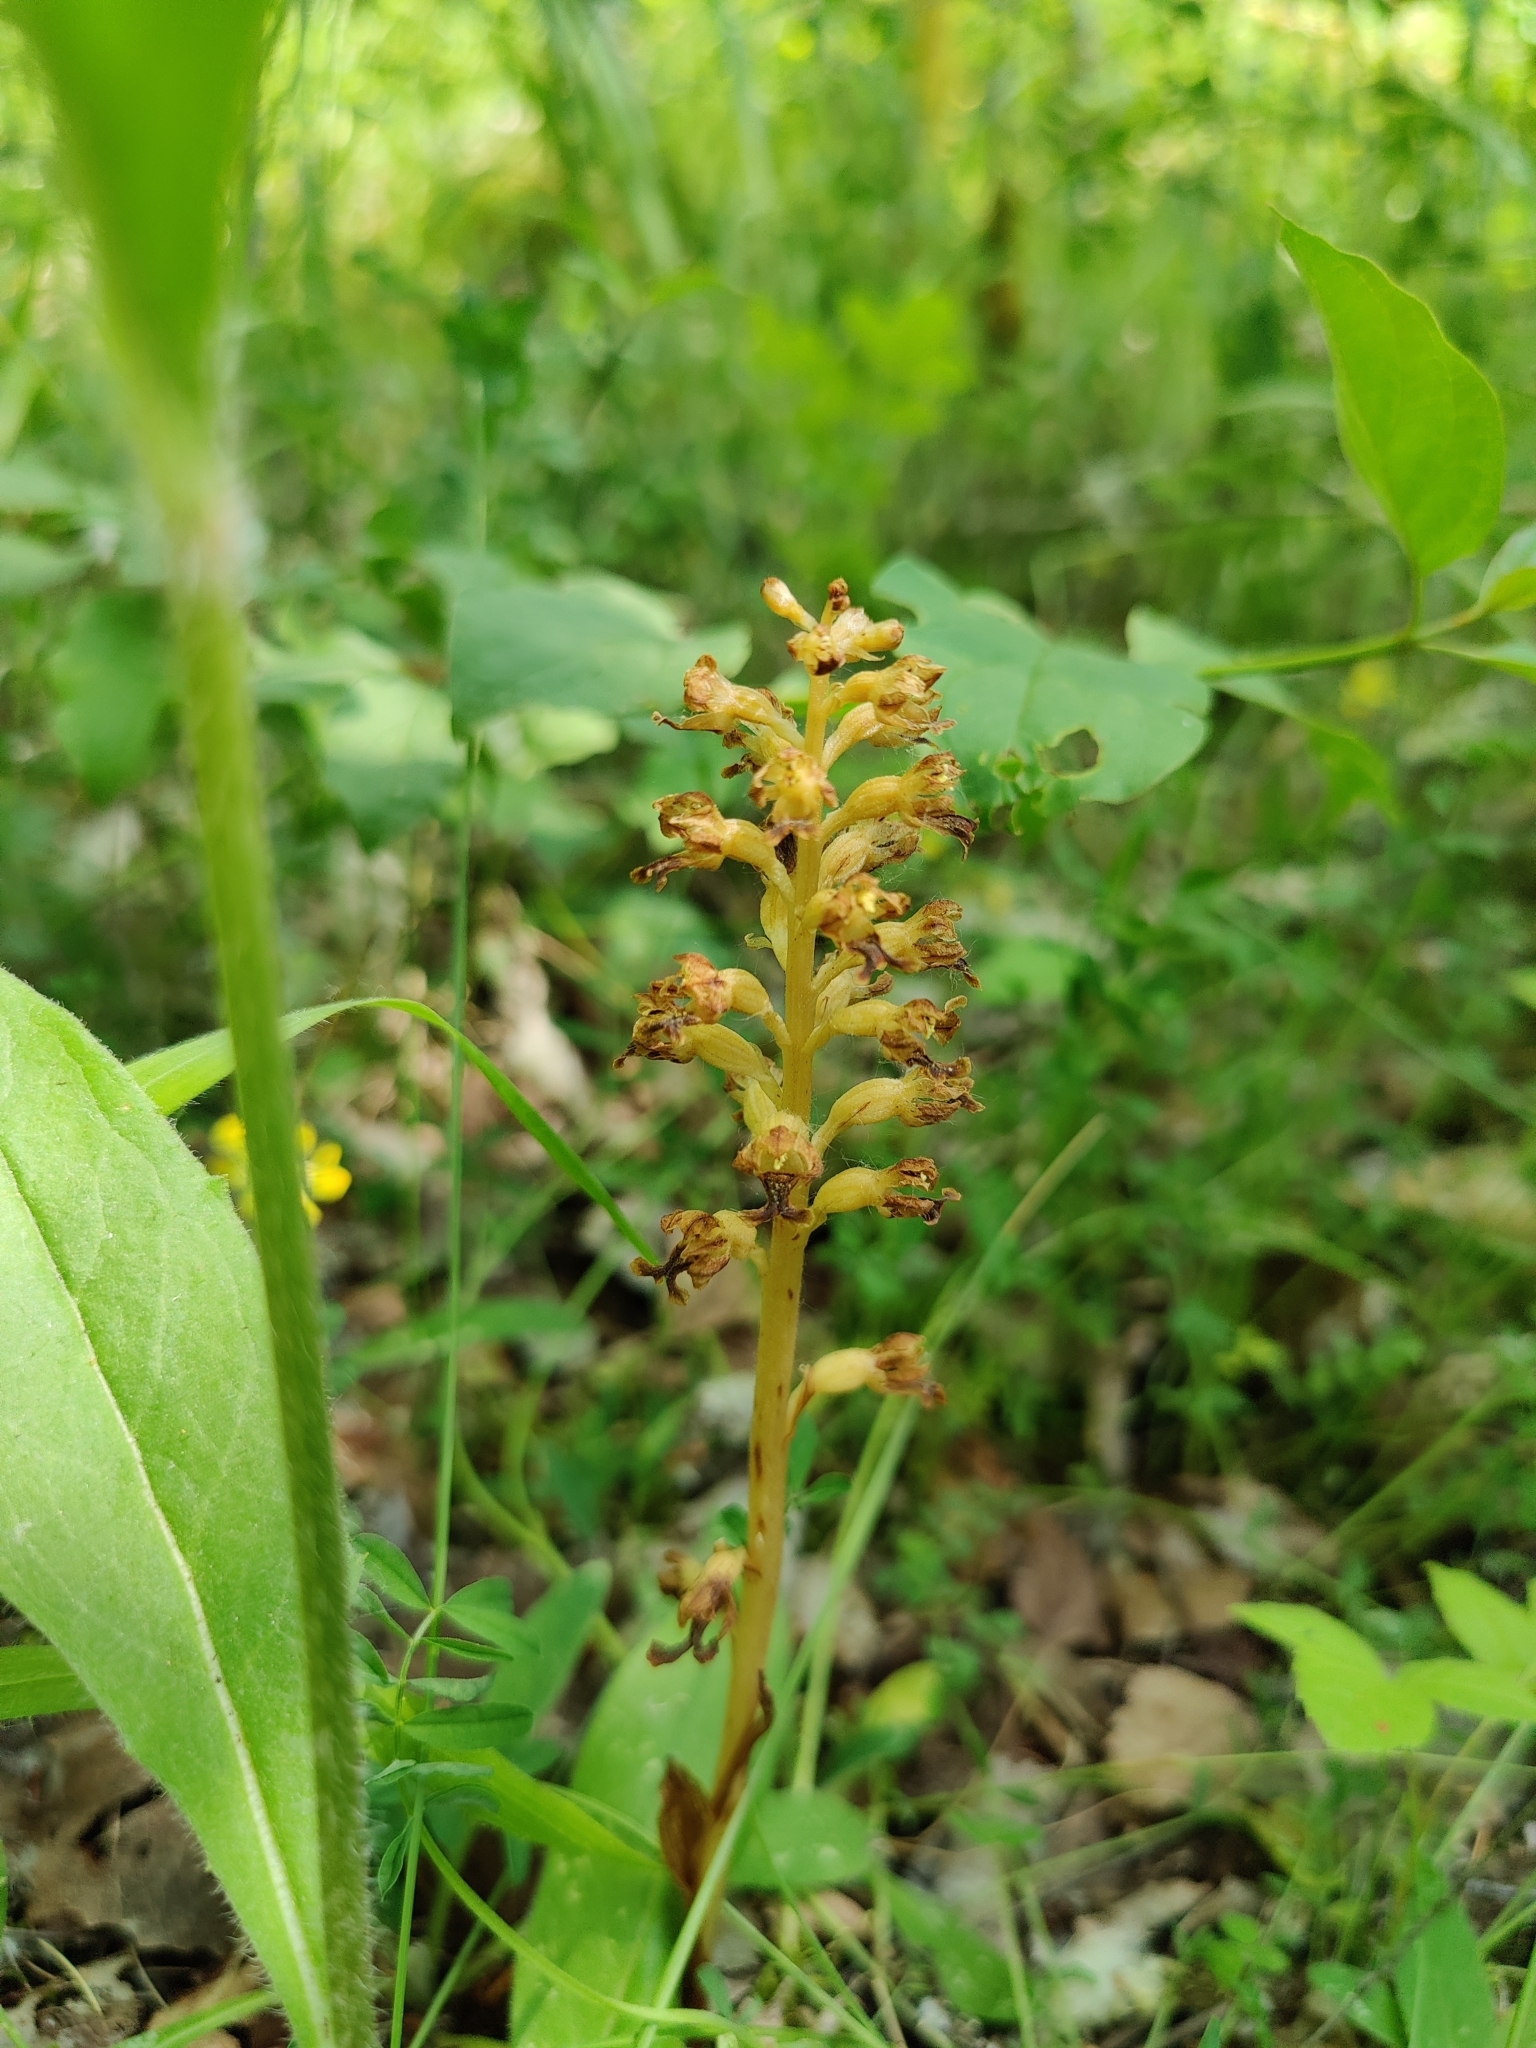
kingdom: Plantae
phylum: Tracheophyta
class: Liliopsida
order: Asparagales
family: Orchidaceae
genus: Neottia
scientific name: Neottia nidus-avis
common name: Bird's-nest orchid
